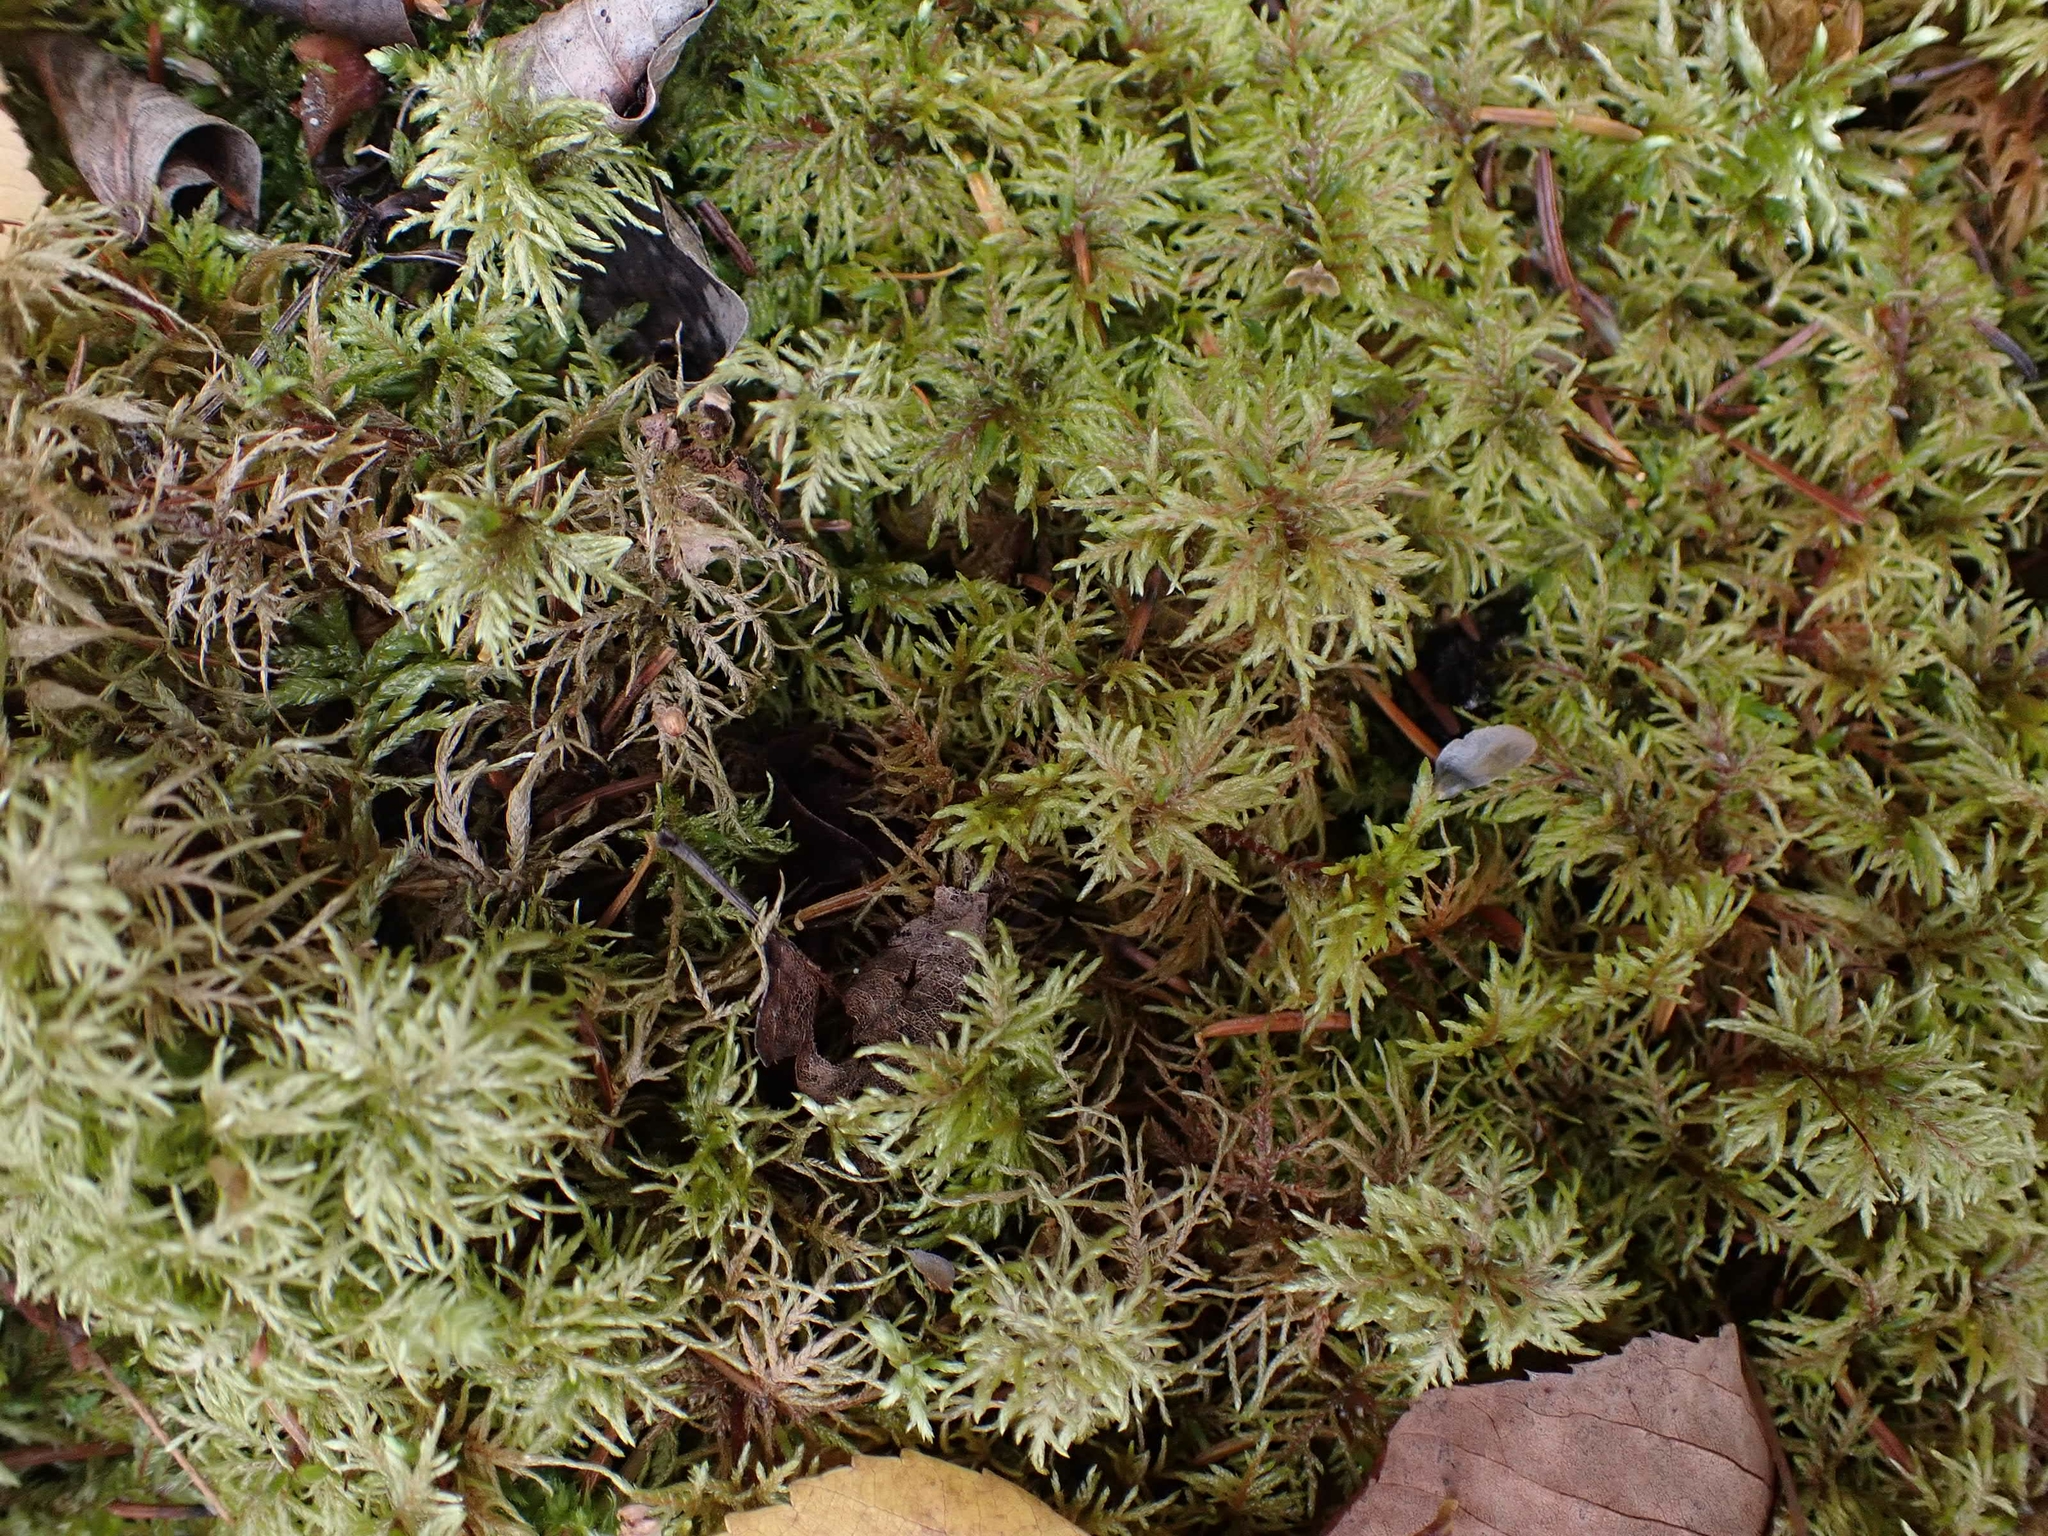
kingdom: Plantae
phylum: Bryophyta
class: Bryopsida
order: Hypnales
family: Hylocomiaceae
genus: Hylocomium
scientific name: Hylocomium splendens
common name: Stairstep moss
